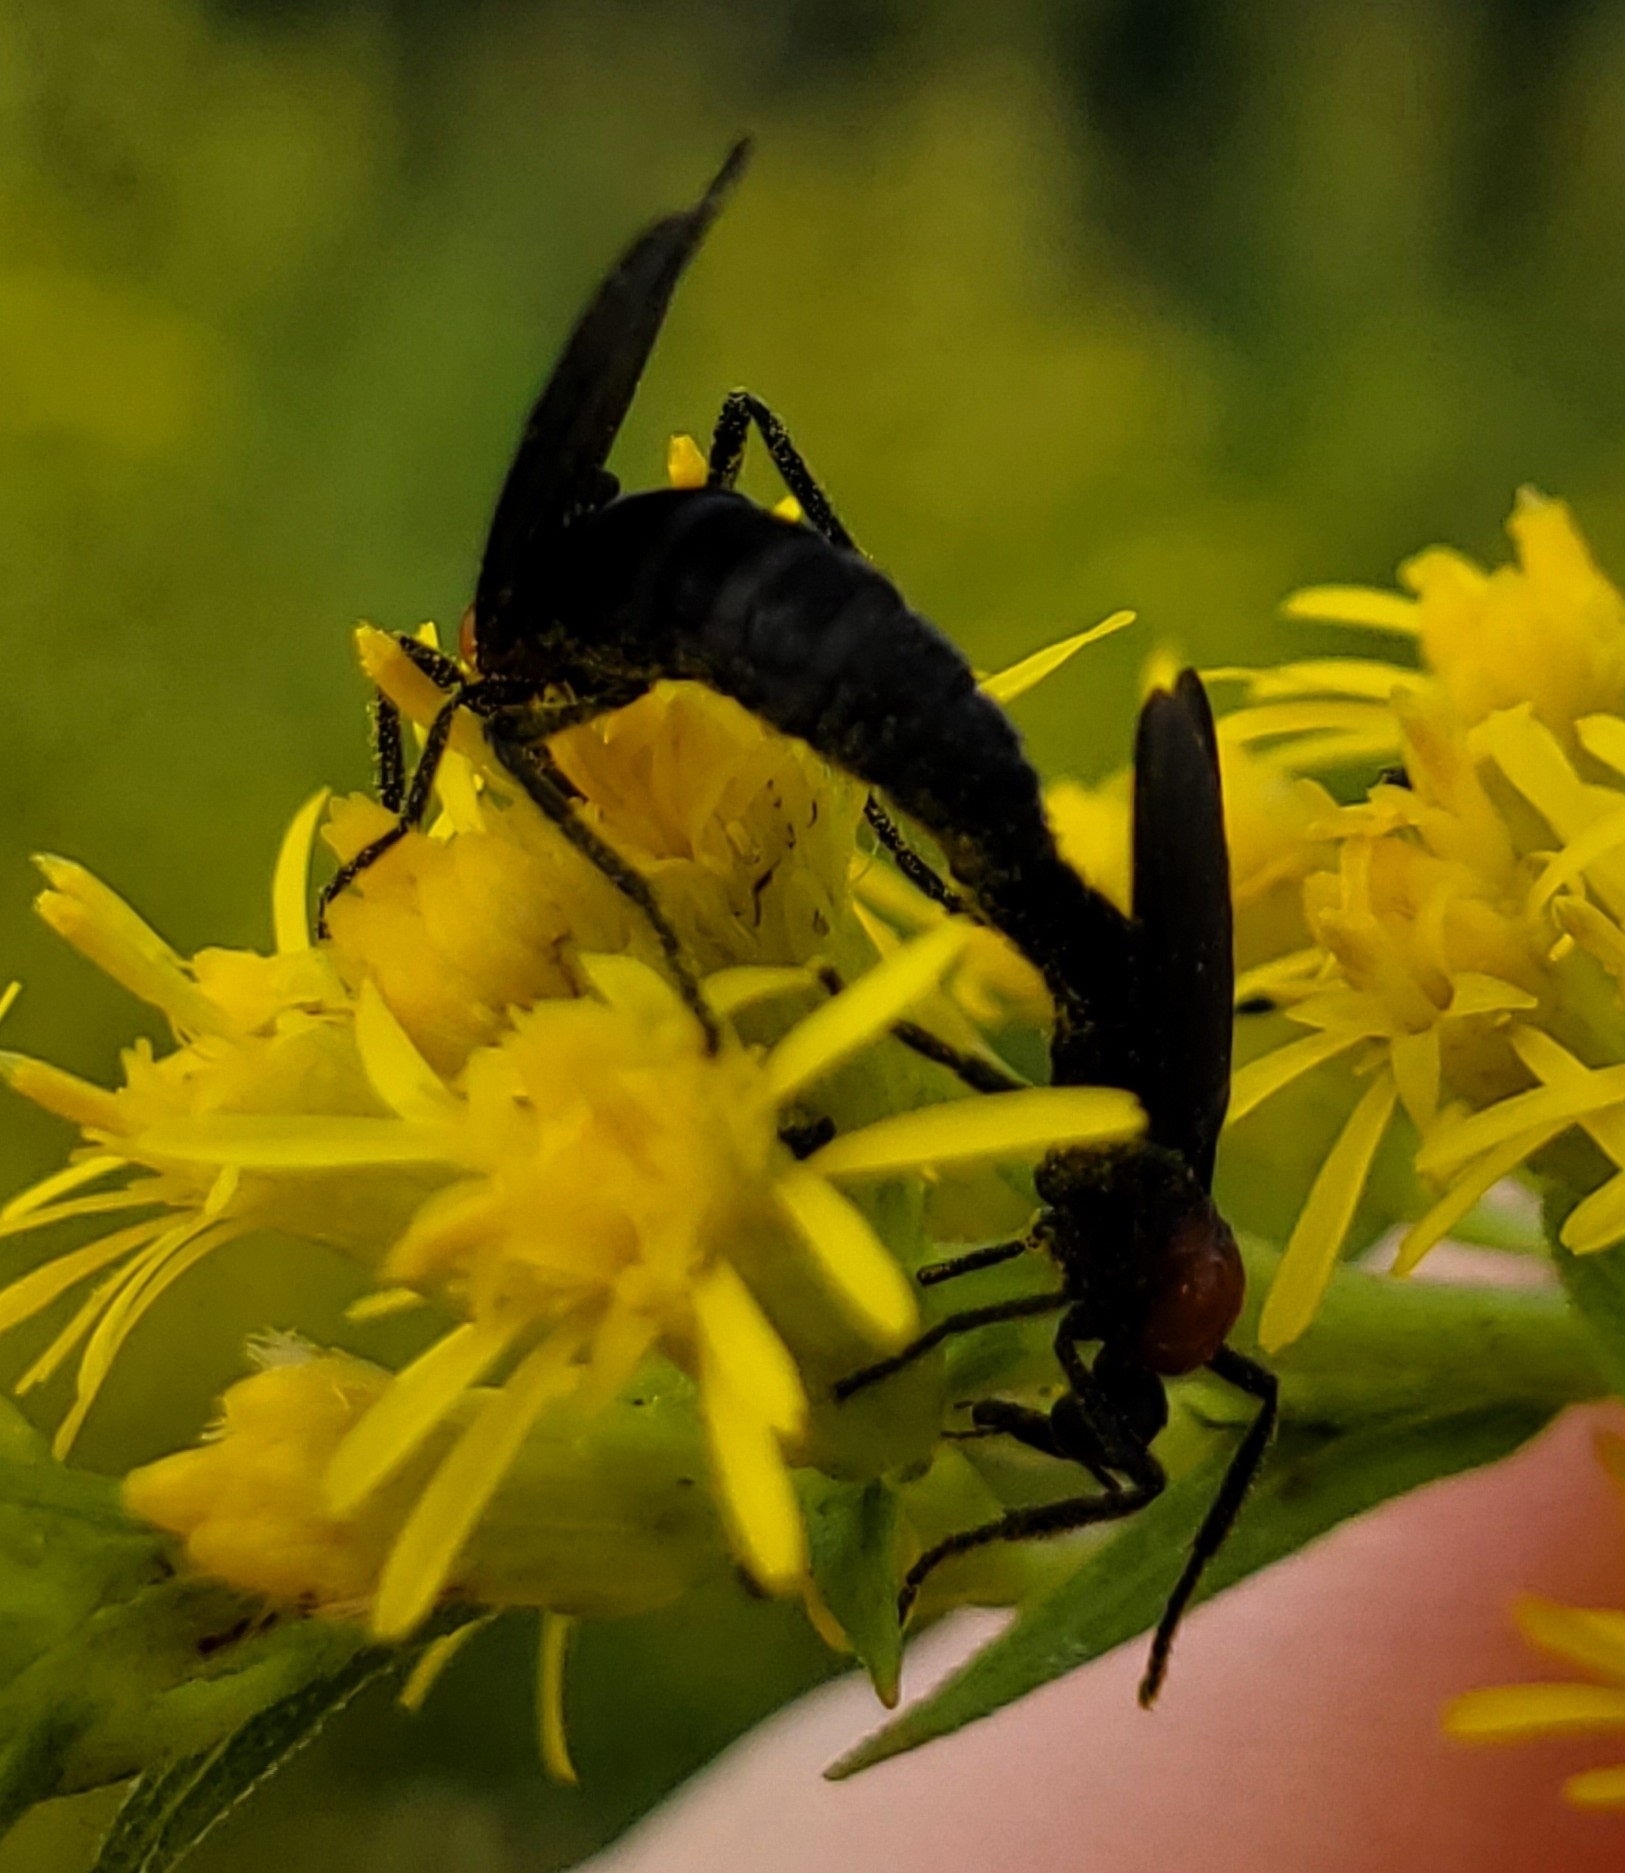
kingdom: Animalia
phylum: Arthropoda
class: Insecta
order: Diptera
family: Bibionidae
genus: Plecia
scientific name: Plecia nearctica
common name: March fly
